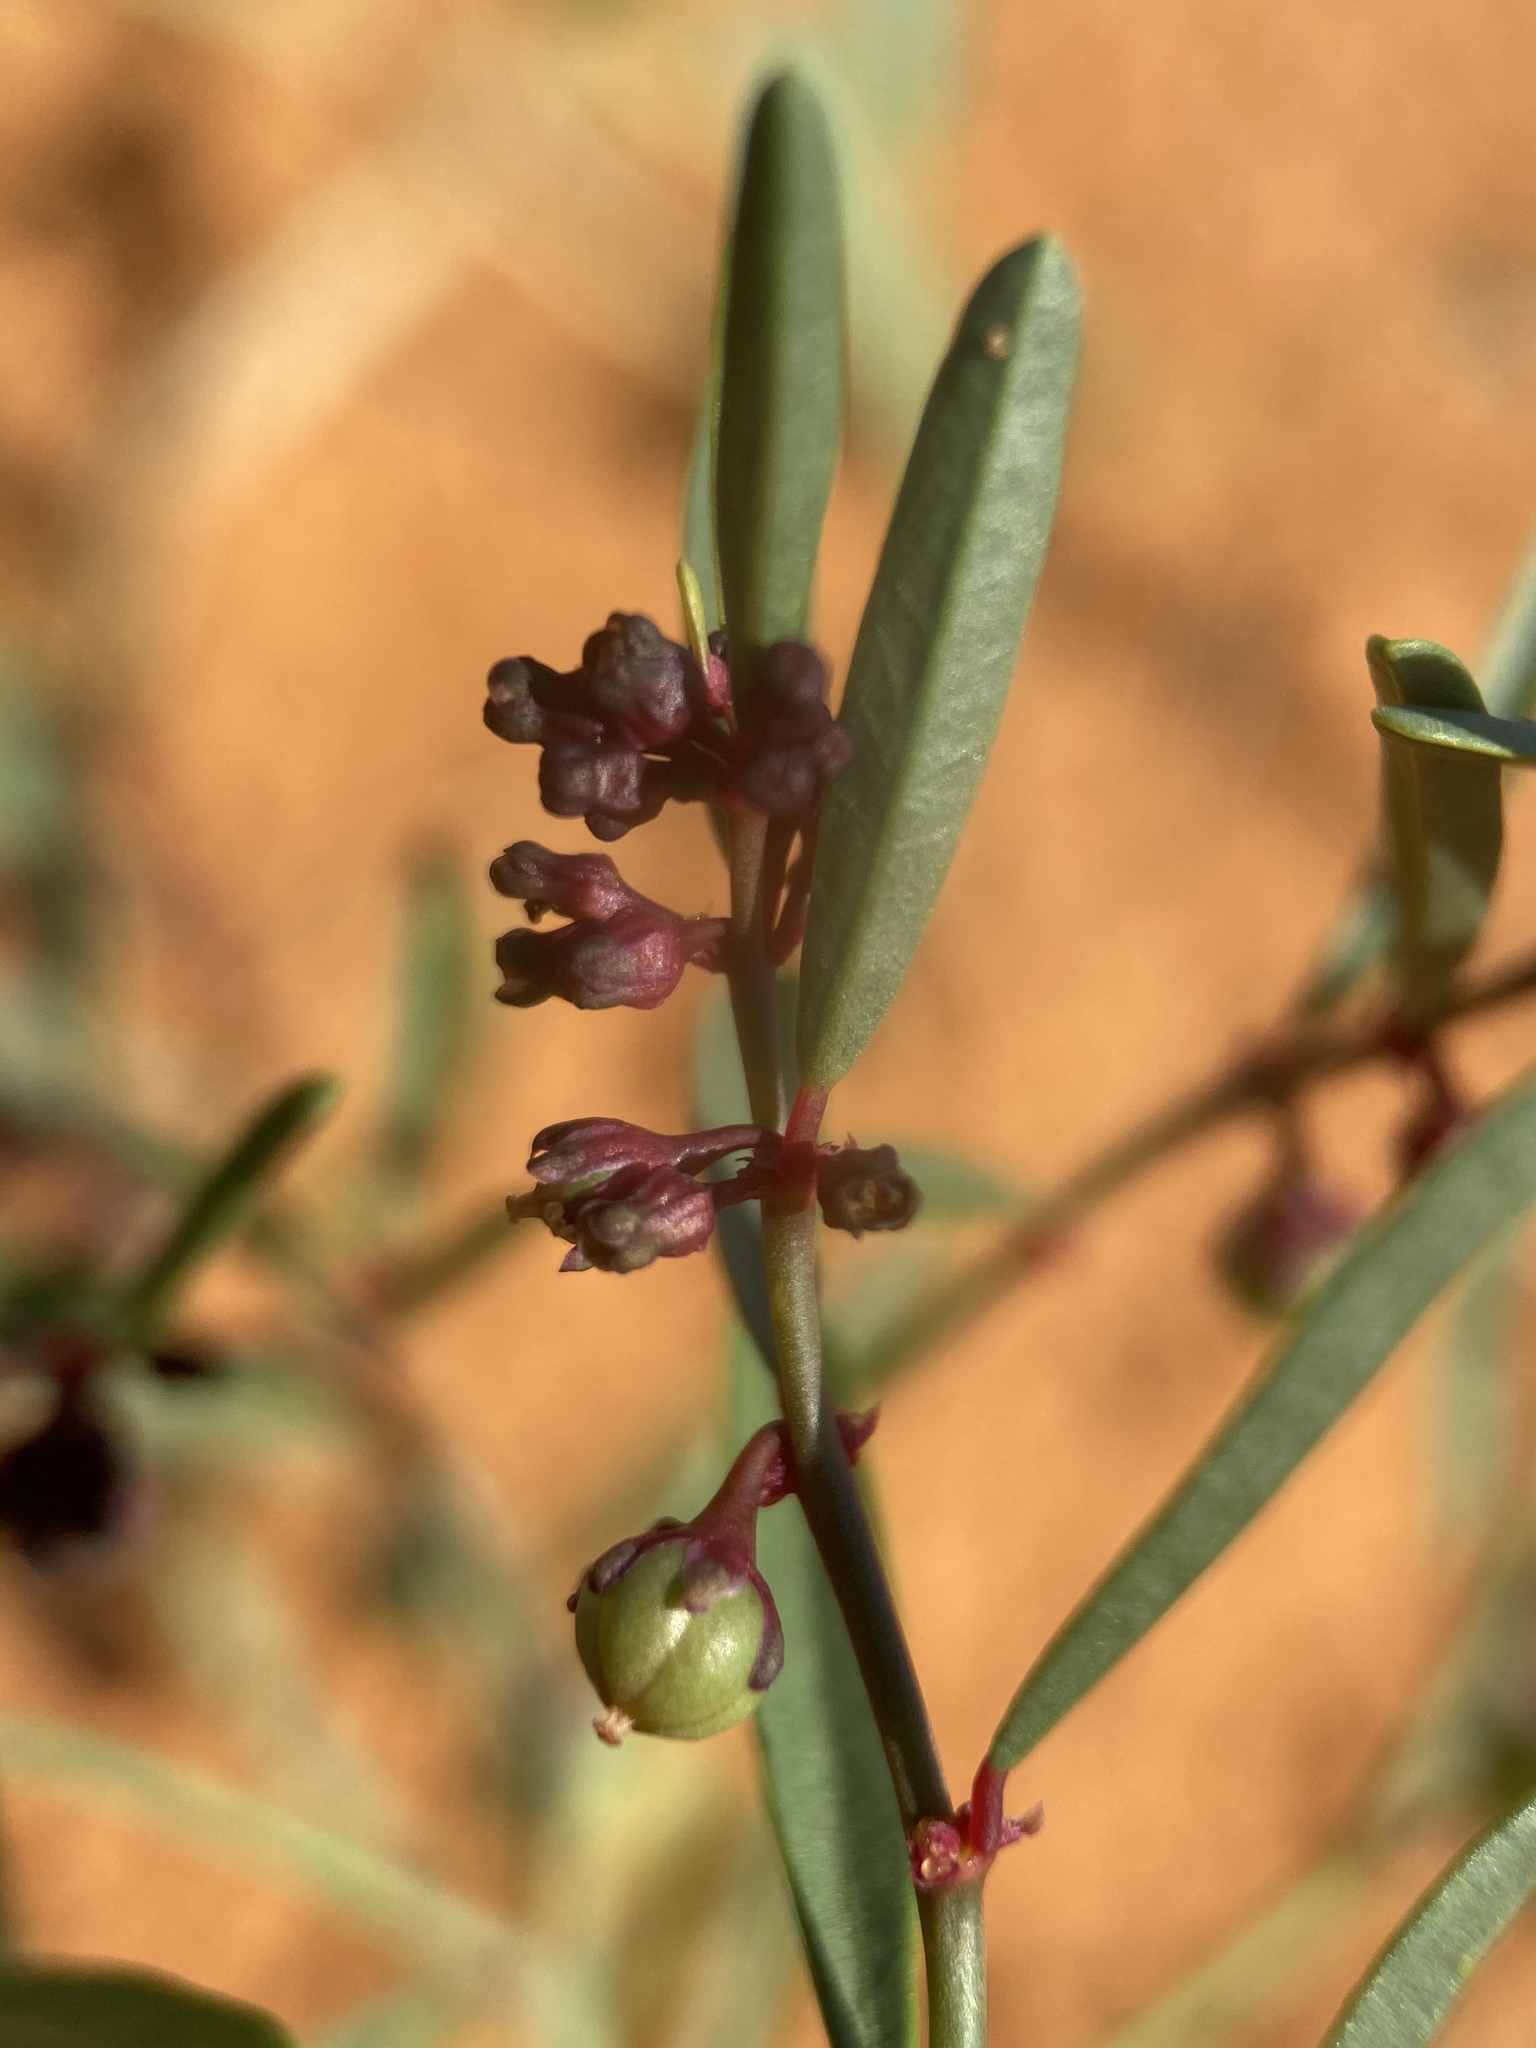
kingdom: Plantae
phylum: Tracheophyta
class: Magnoliopsida
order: Malpighiales
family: Phyllanthaceae
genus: Phyllanthus
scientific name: Phyllanthus warnockii
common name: Sand reverchonia
